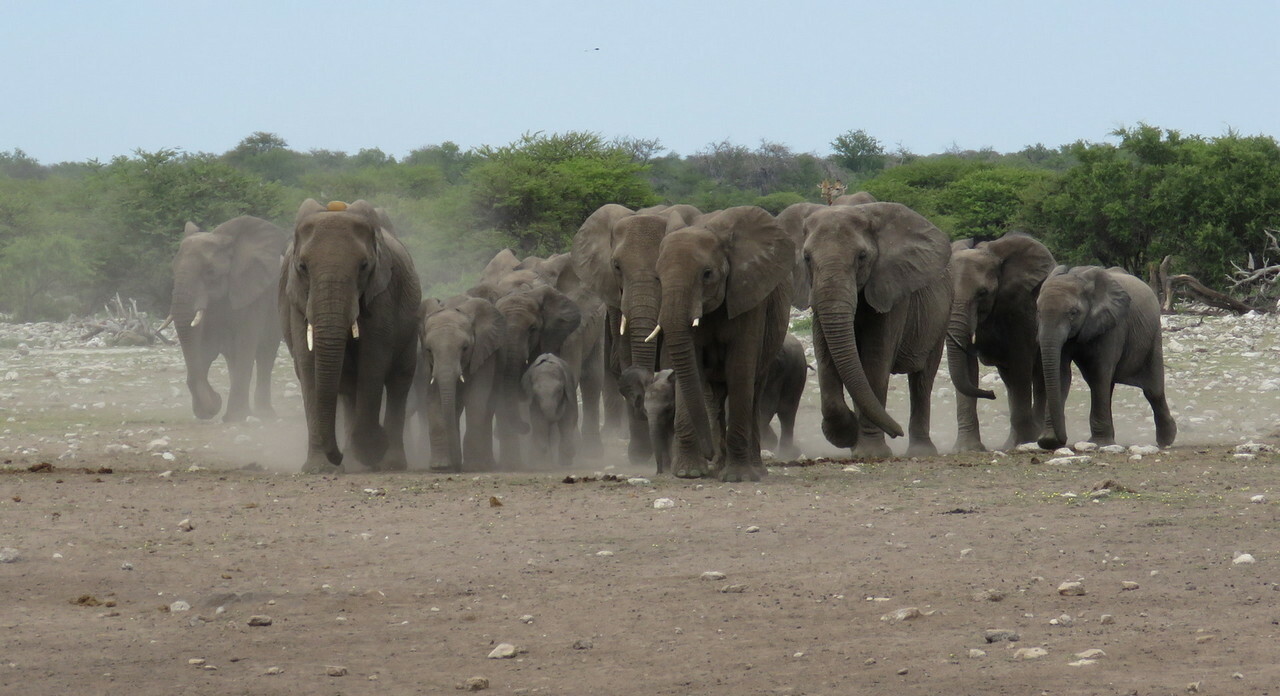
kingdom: Animalia
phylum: Chordata
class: Mammalia
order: Proboscidea
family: Elephantidae
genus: Loxodonta
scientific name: Loxodonta africana
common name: African elephant
